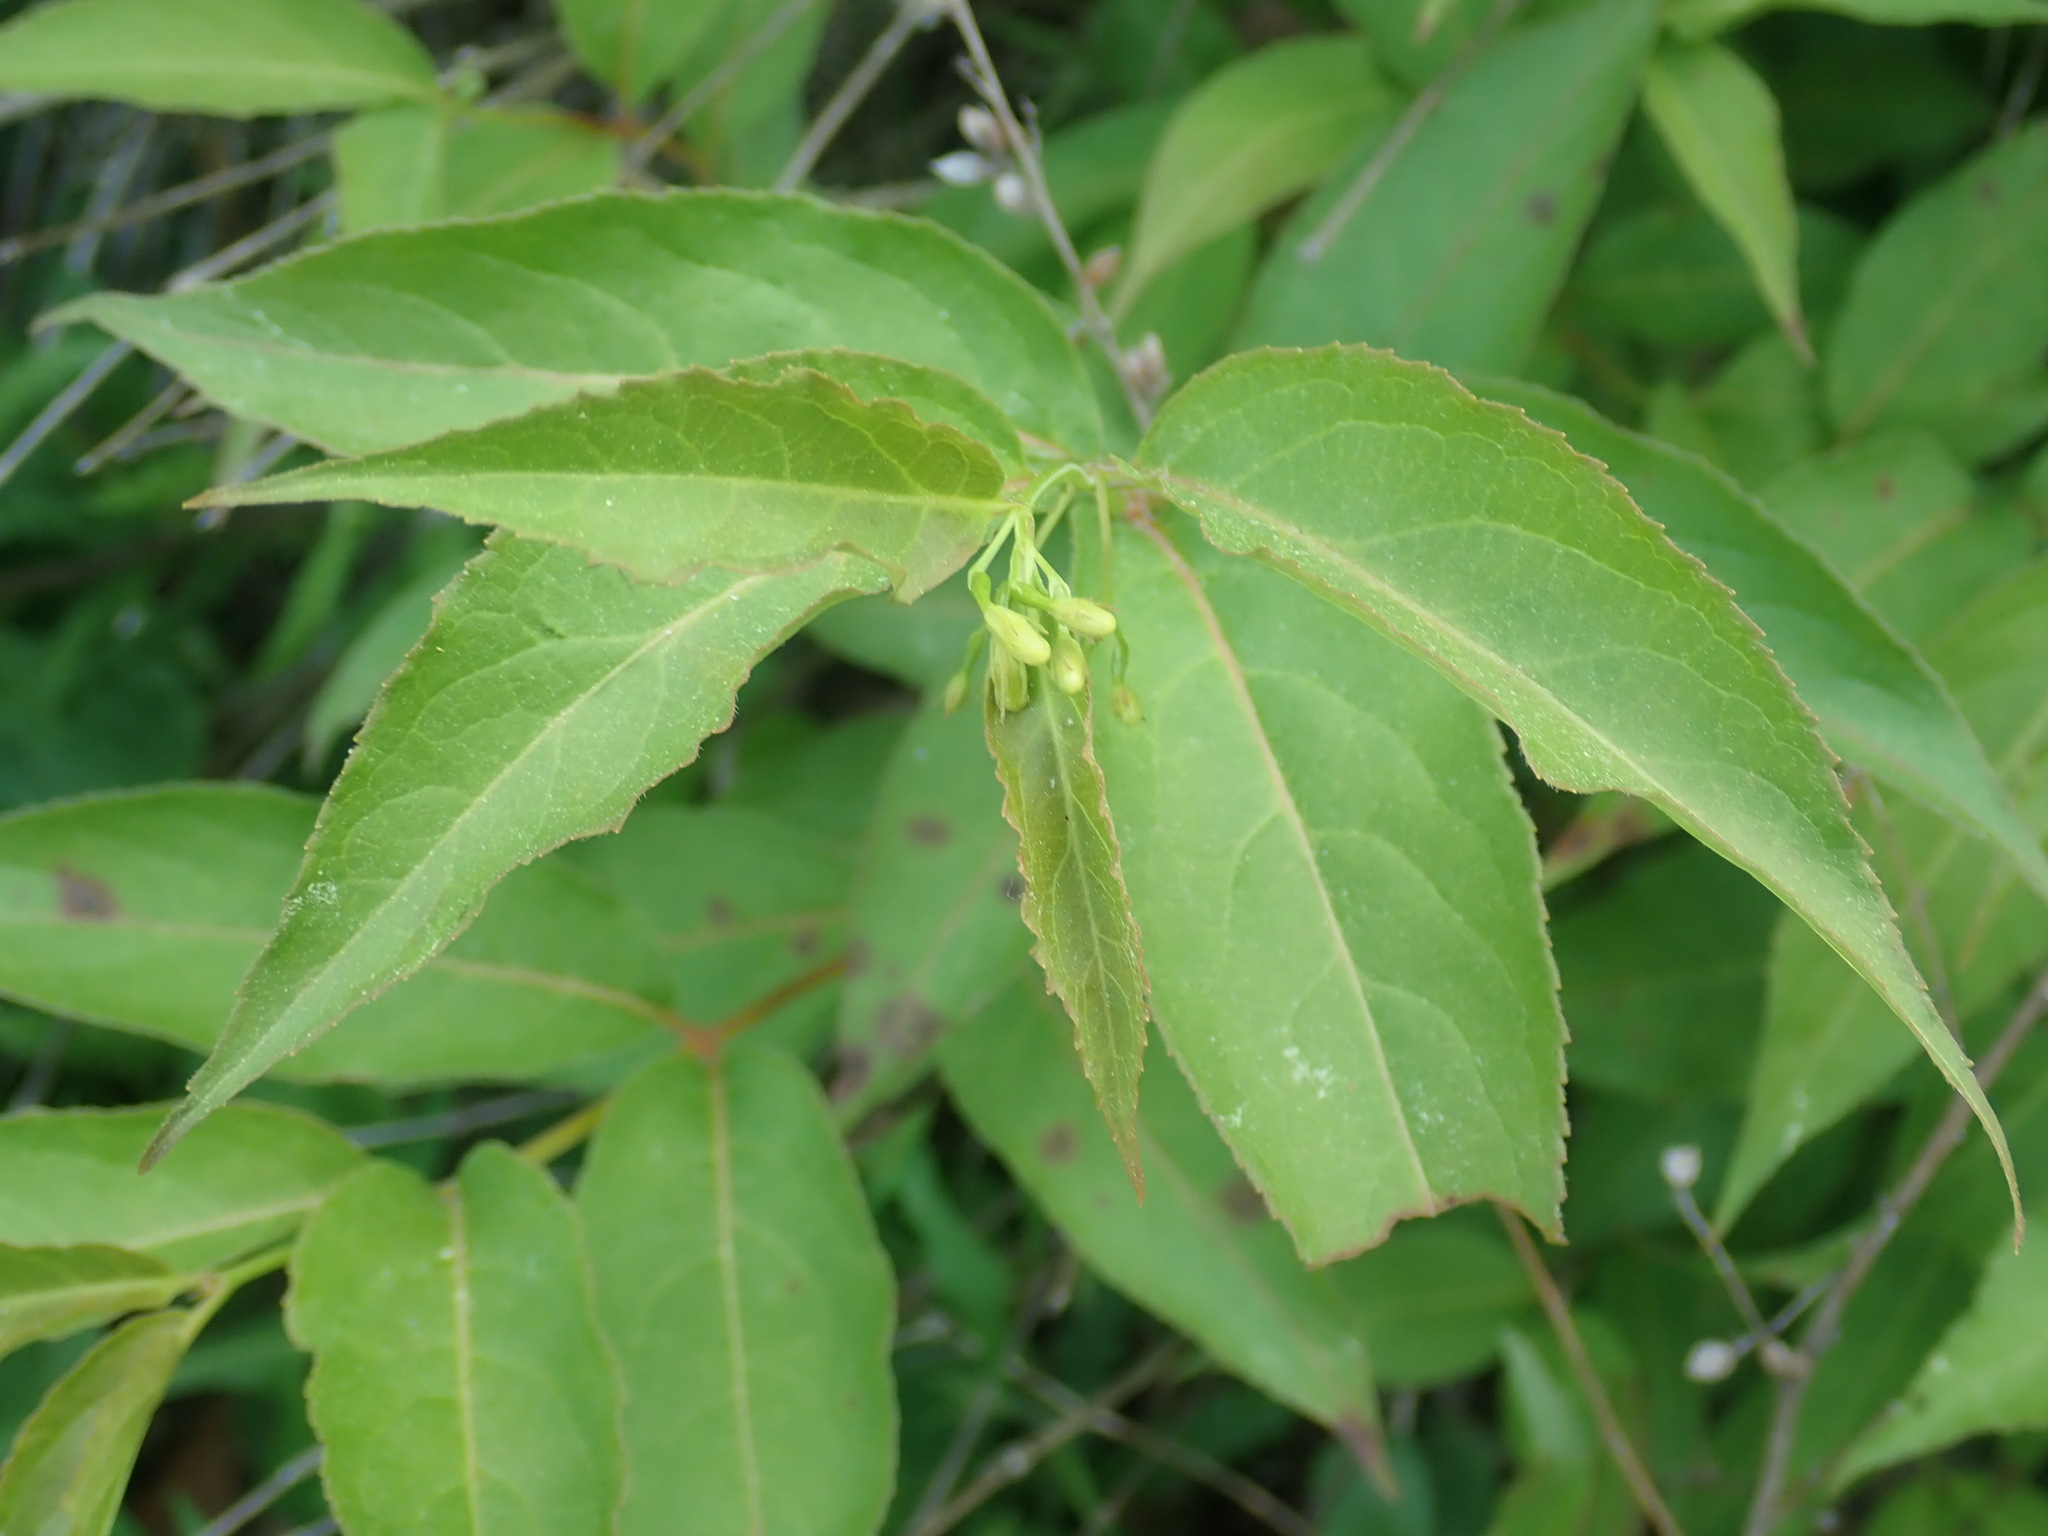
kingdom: Plantae
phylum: Tracheophyta
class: Magnoliopsida
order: Dipsacales
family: Caprifoliaceae
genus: Diervilla
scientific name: Diervilla lonicera
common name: Bush-honeysuckle
